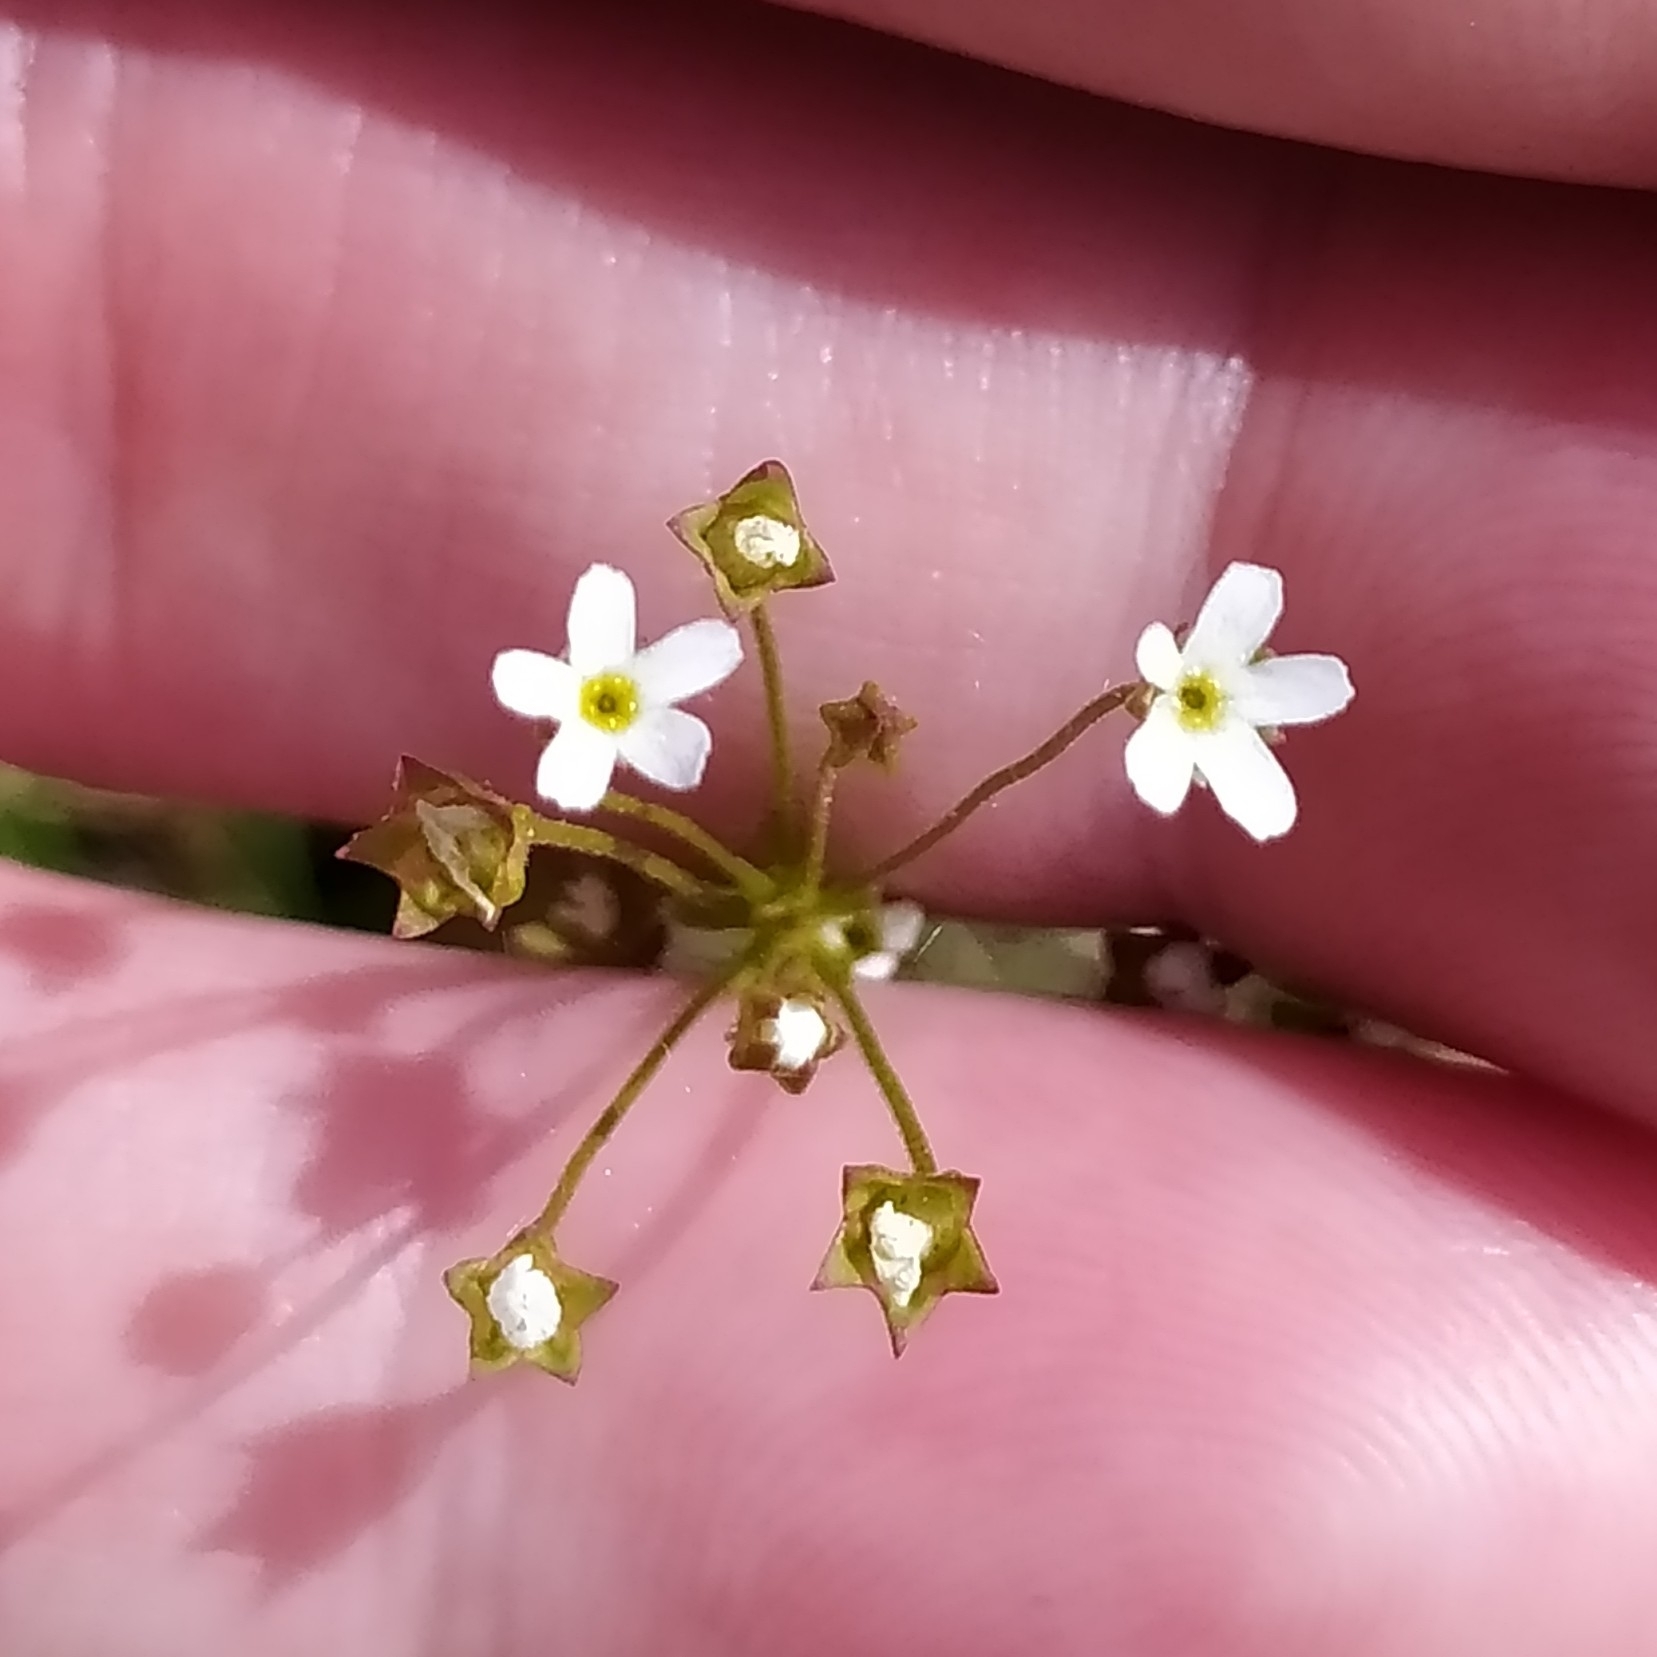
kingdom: Plantae
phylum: Tracheophyta
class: Magnoliopsida
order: Ericales
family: Primulaceae
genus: Androsace
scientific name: Androsace septentrionalis
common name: Hairy northern fairy-candelabra
